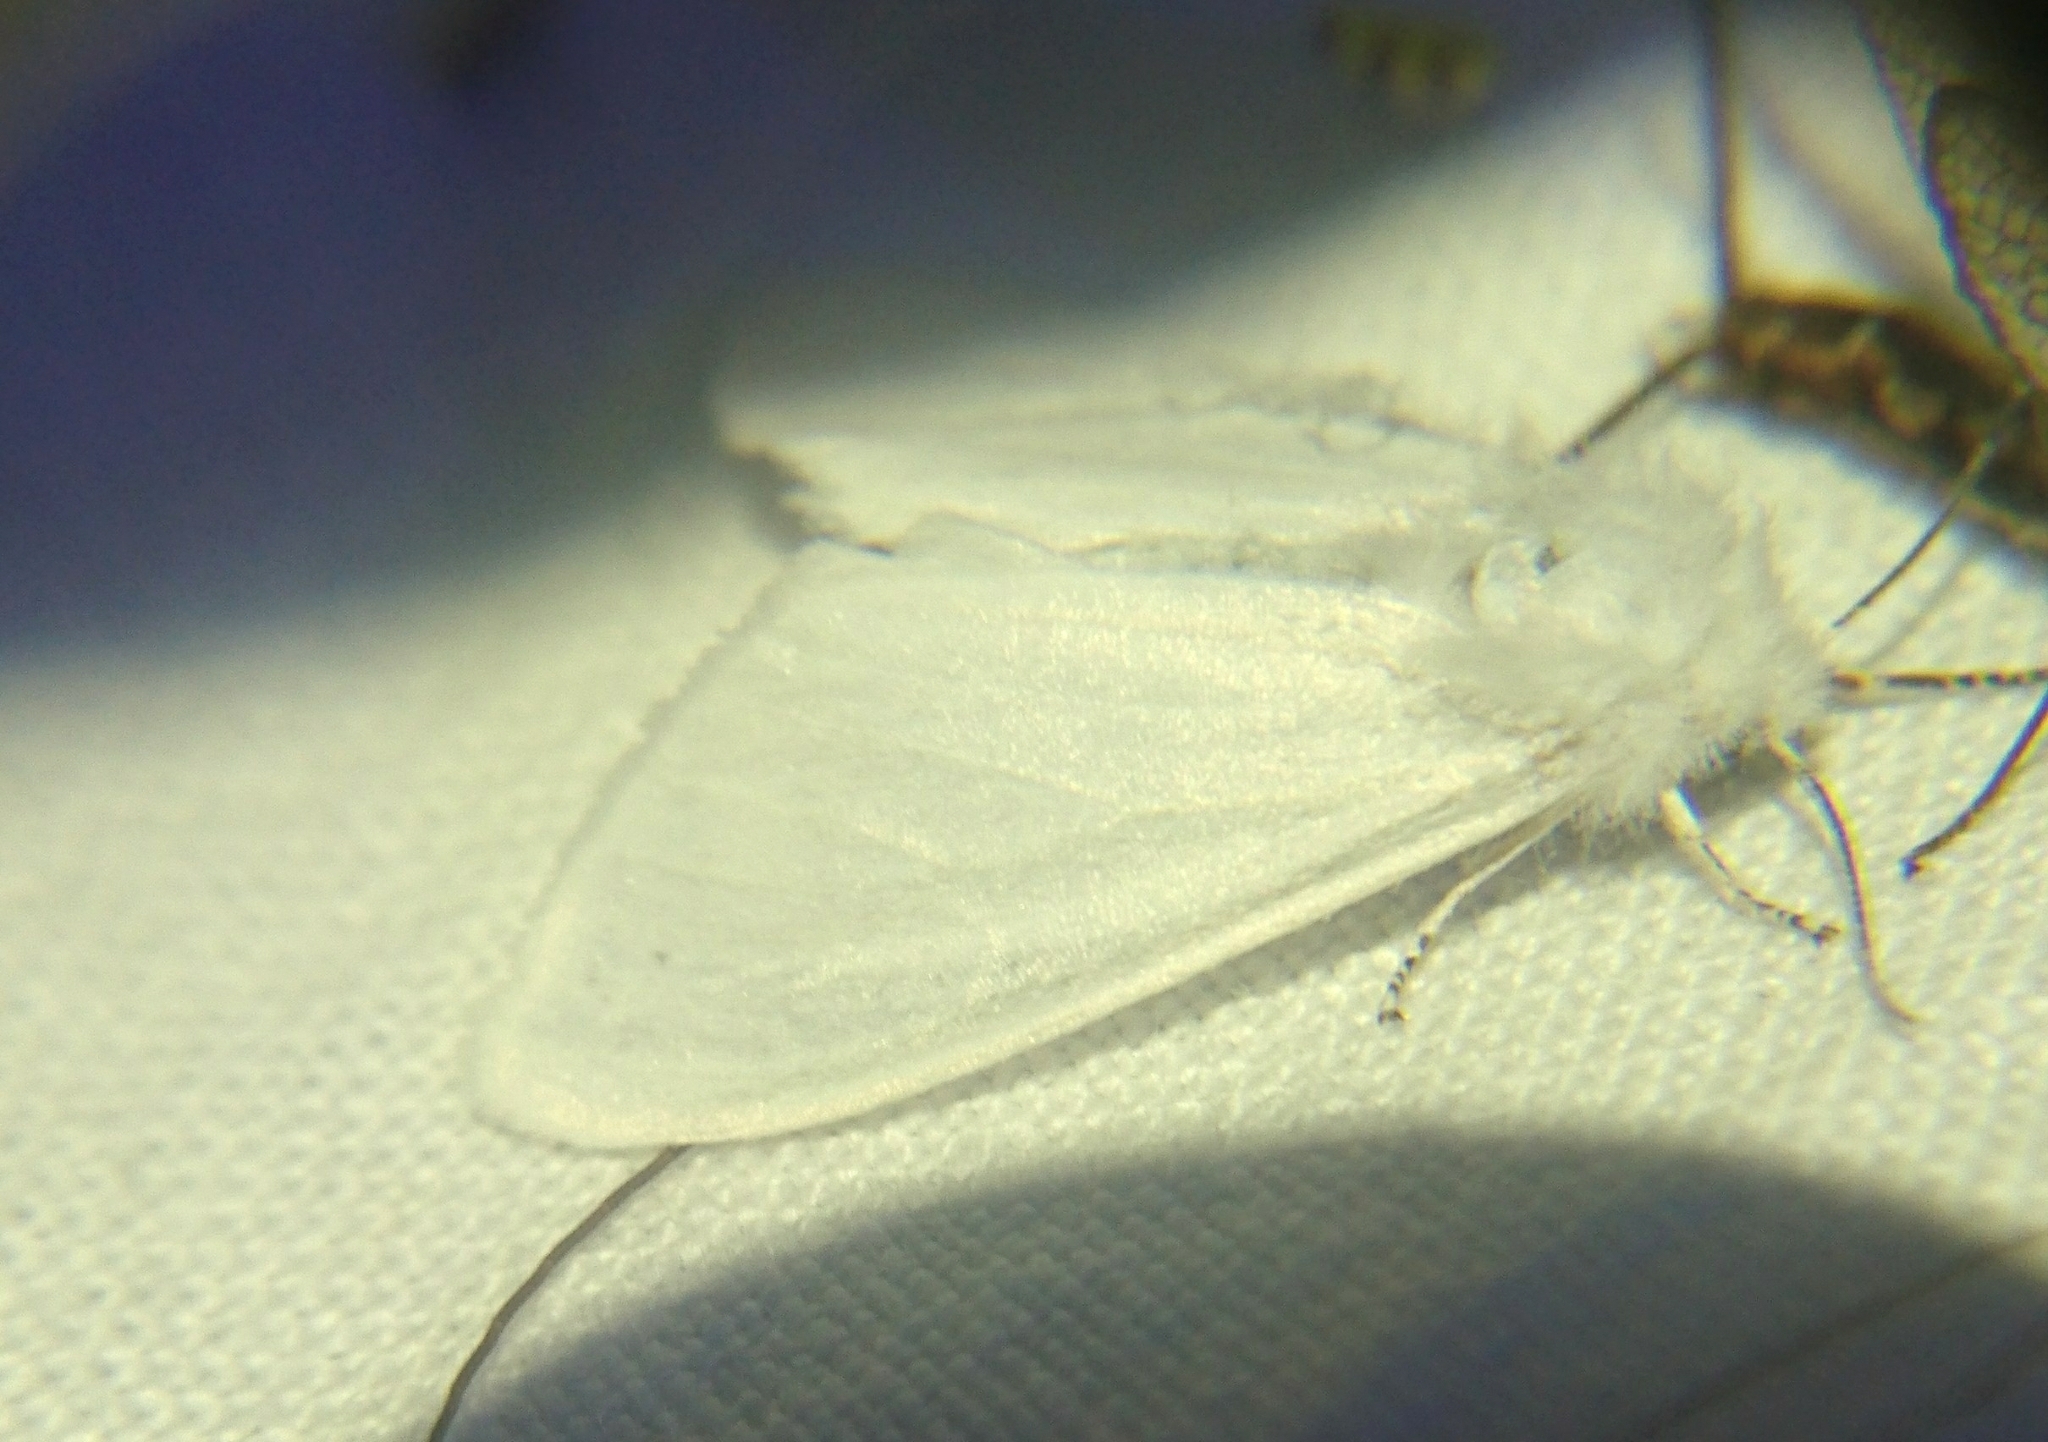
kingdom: Animalia
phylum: Arthropoda
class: Insecta
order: Lepidoptera
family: Erebidae
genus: Hyphantria
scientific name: Hyphantria cunea
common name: American white moth
